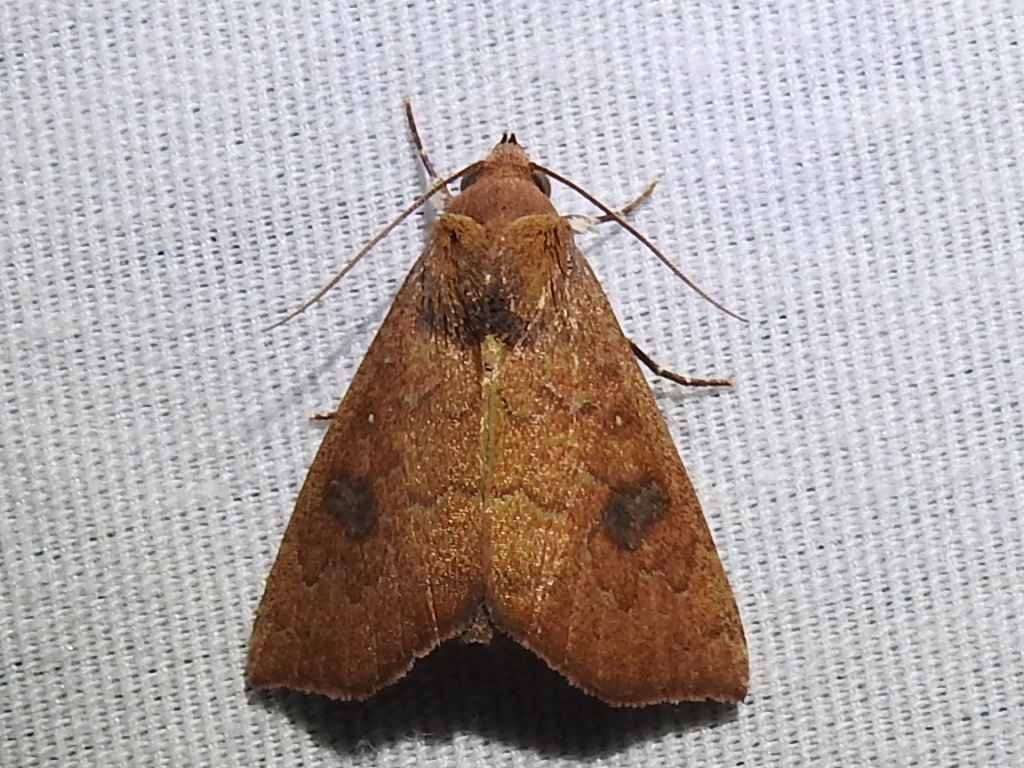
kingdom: Animalia
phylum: Arthropoda
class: Insecta
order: Lepidoptera
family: Erebidae
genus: Anomis
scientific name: Anomis texana
